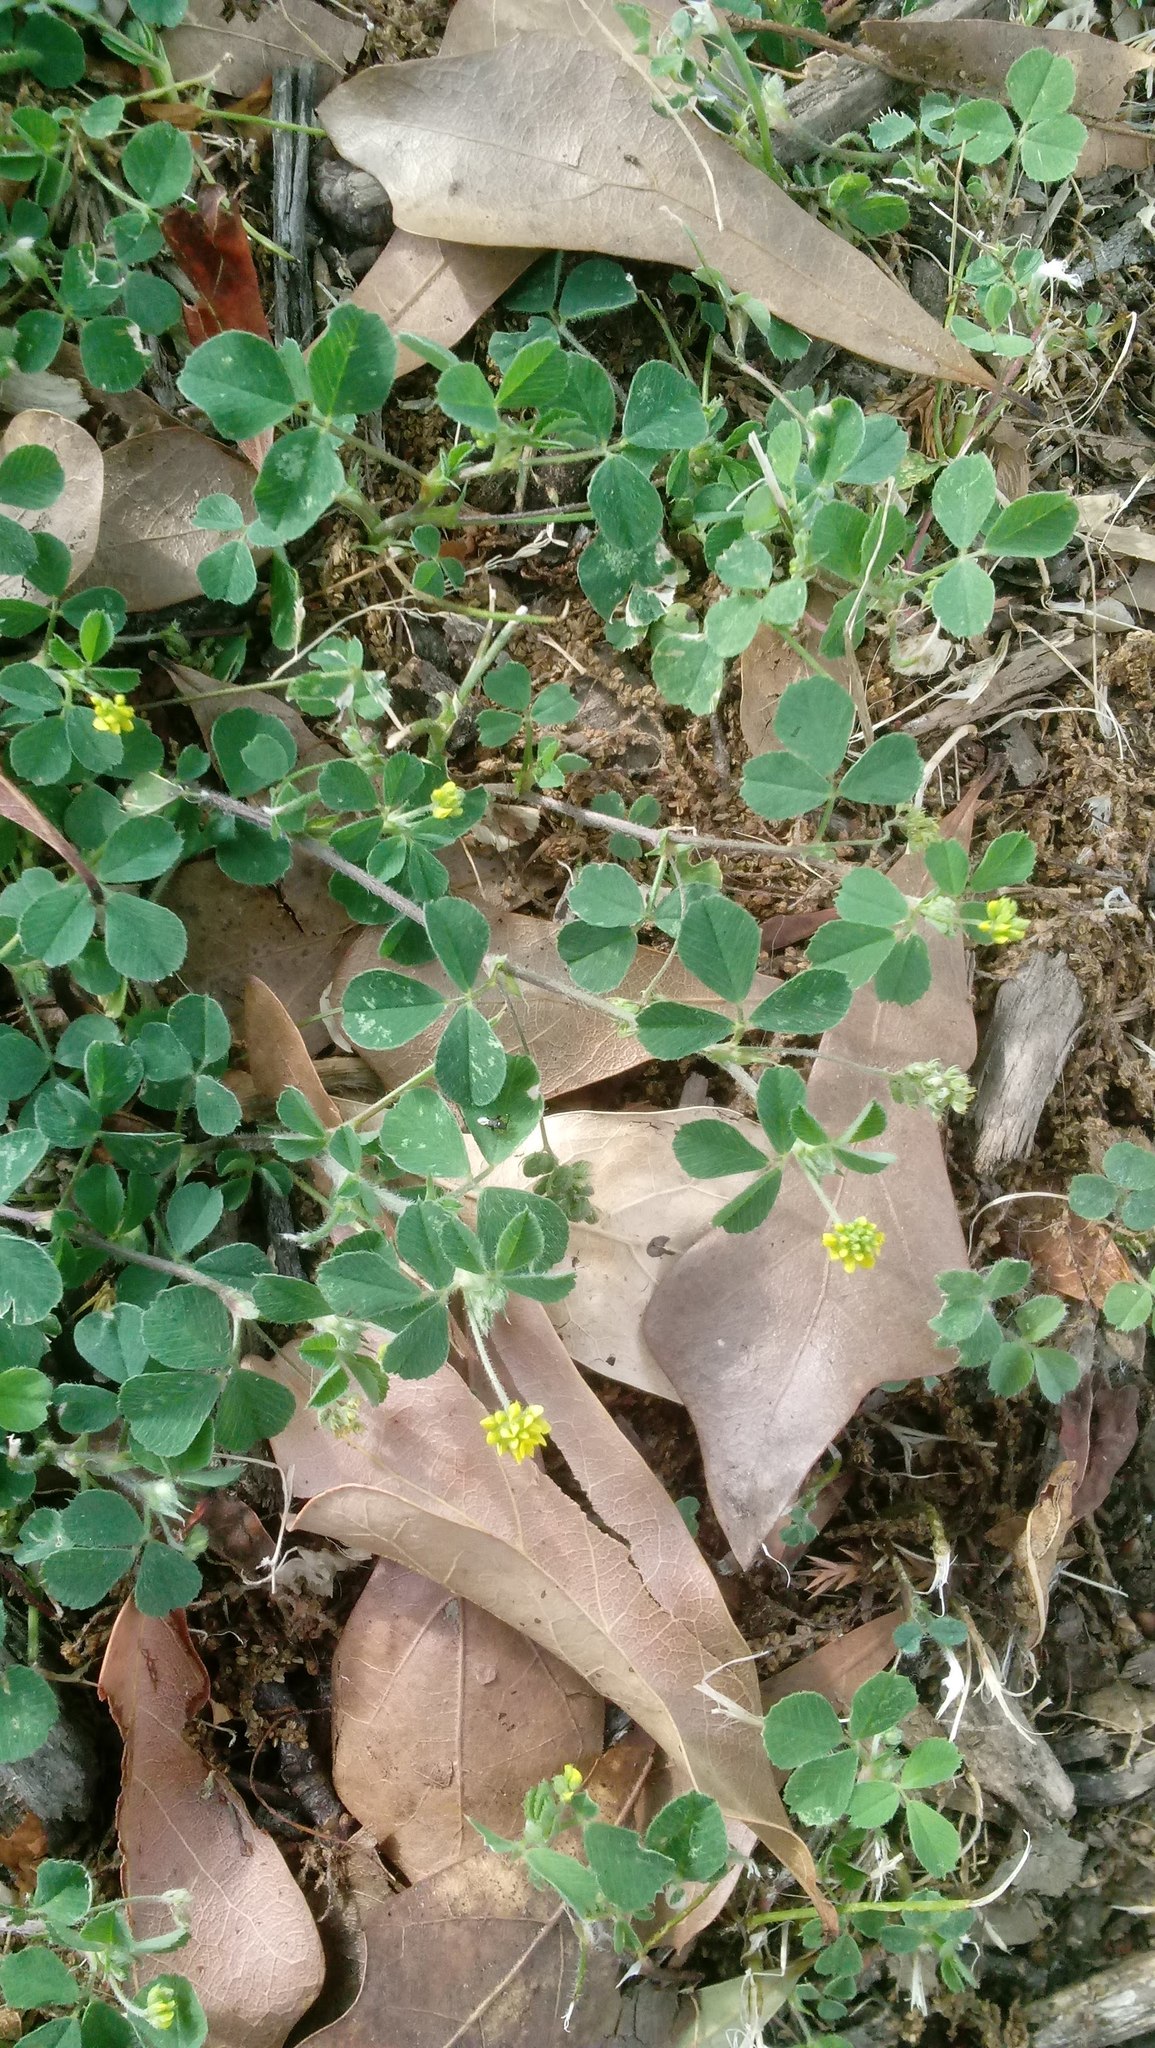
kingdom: Plantae
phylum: Tracheophyta
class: Magnoliopsida
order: Fabales
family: Fabaceae
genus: Medicago
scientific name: Medicago lupulina
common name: Black medick
